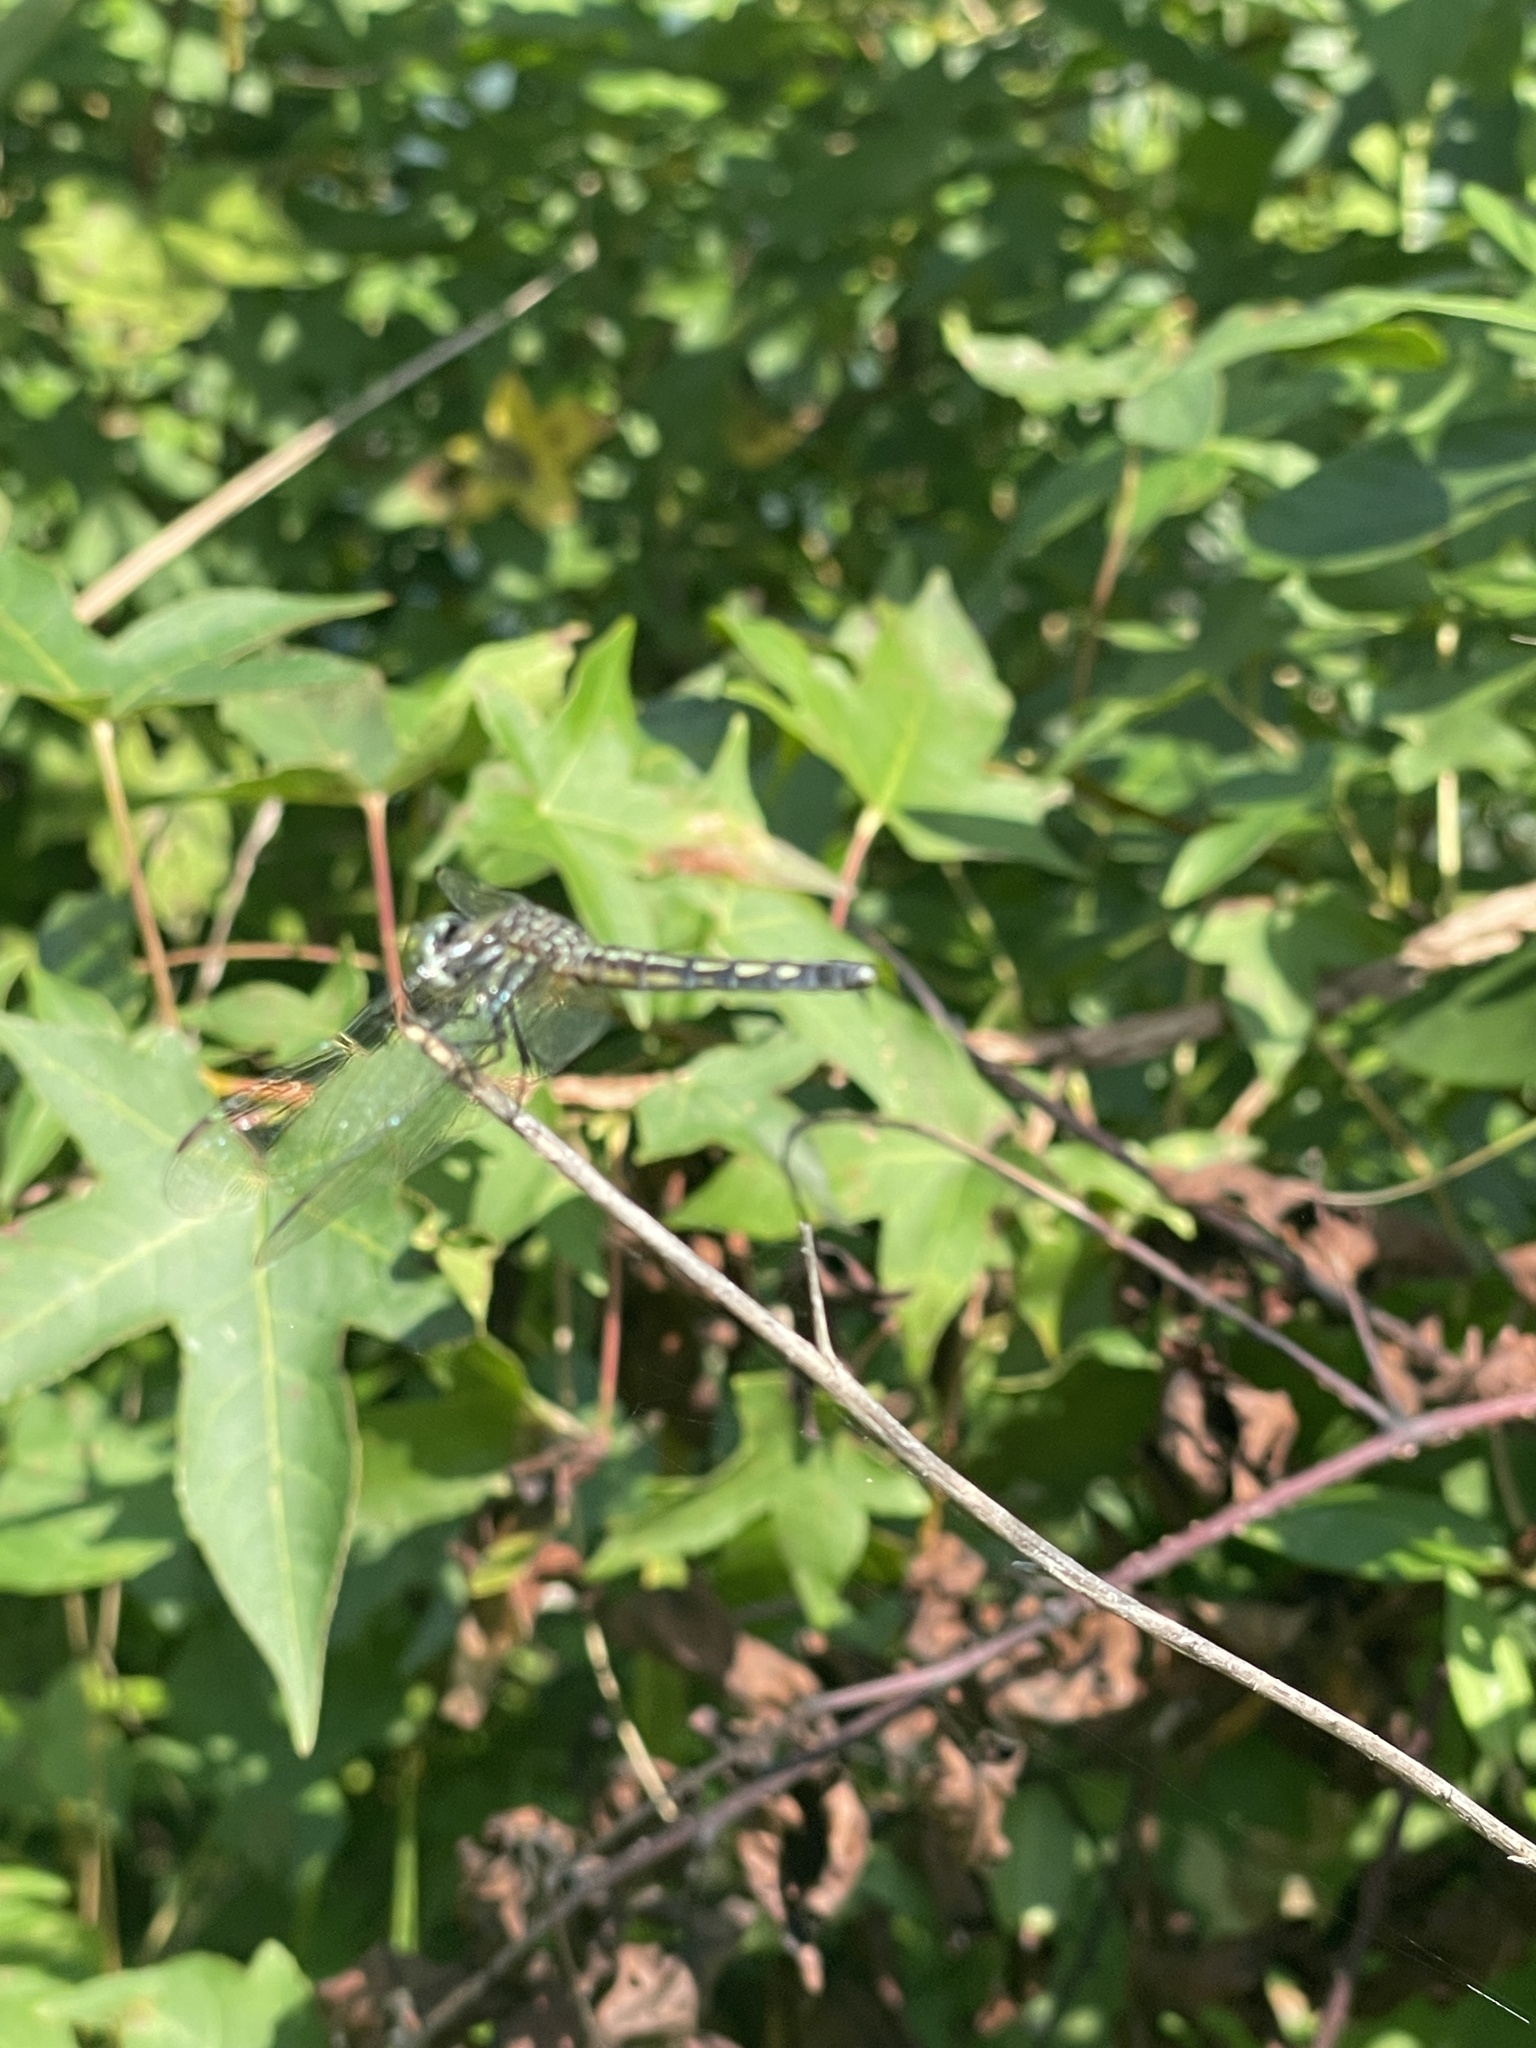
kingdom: Animalia
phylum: Arthropoda
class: Insecta
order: Odonata
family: Libellulidae
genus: Pachydiplax
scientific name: Pachydiplax longipennis
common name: Blue dasher
